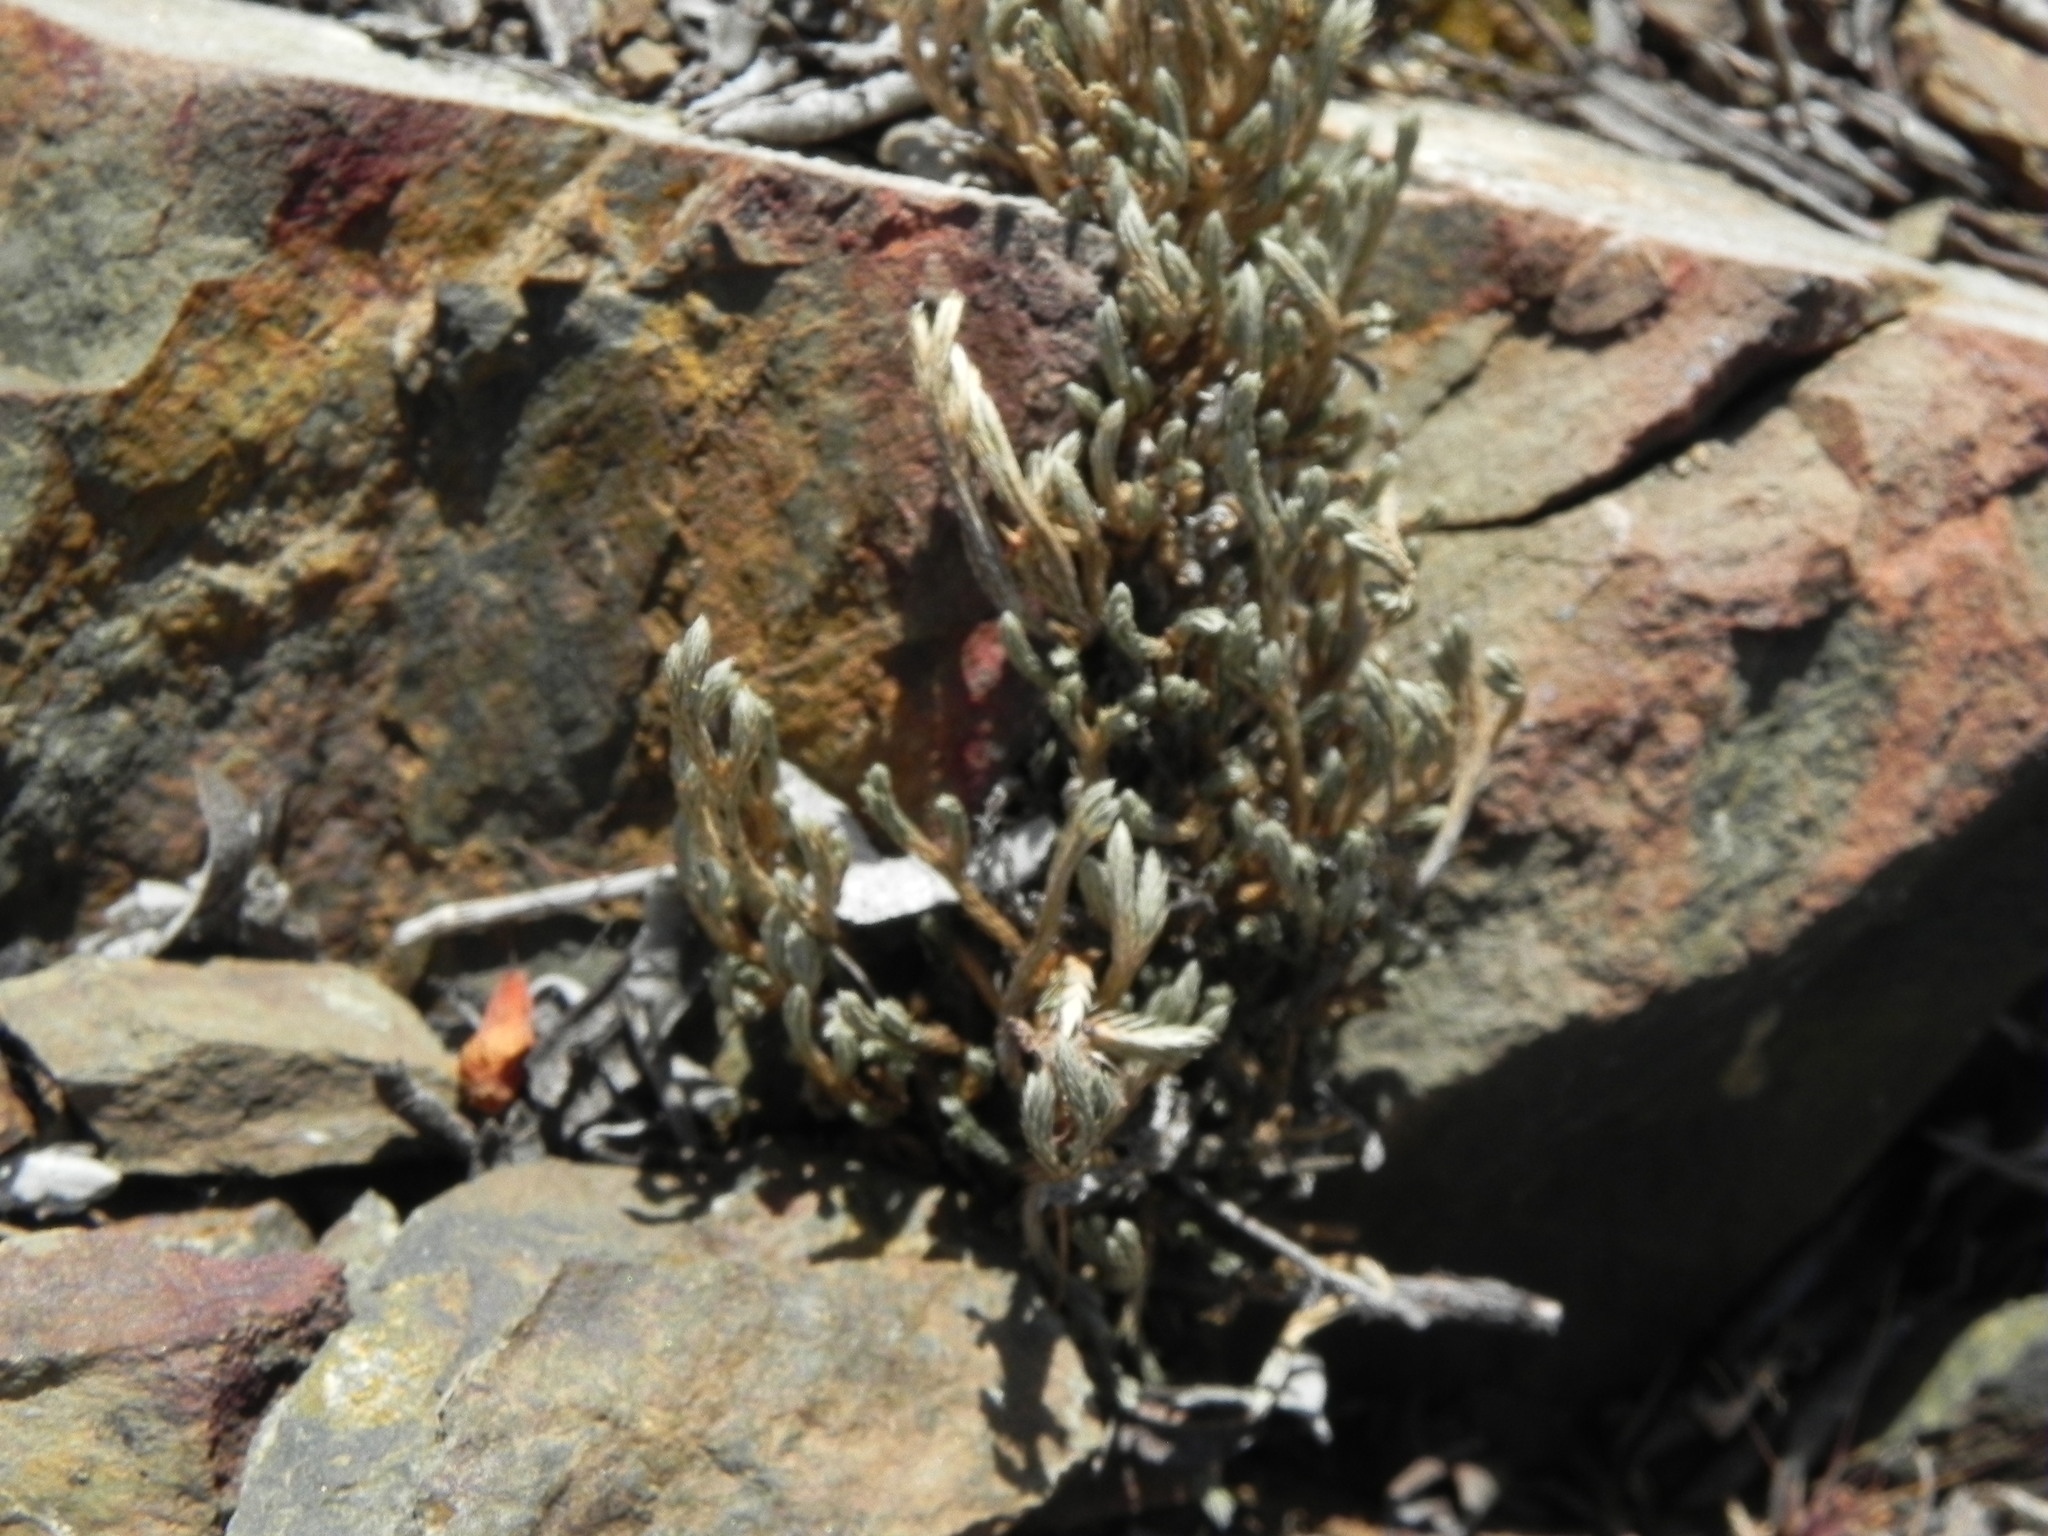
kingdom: Plantae
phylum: Tracheophyta
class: Lycopodiopsida
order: Selaginellales
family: Selaginellaceae
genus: Selaginella
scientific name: Selaginella bigelovii
